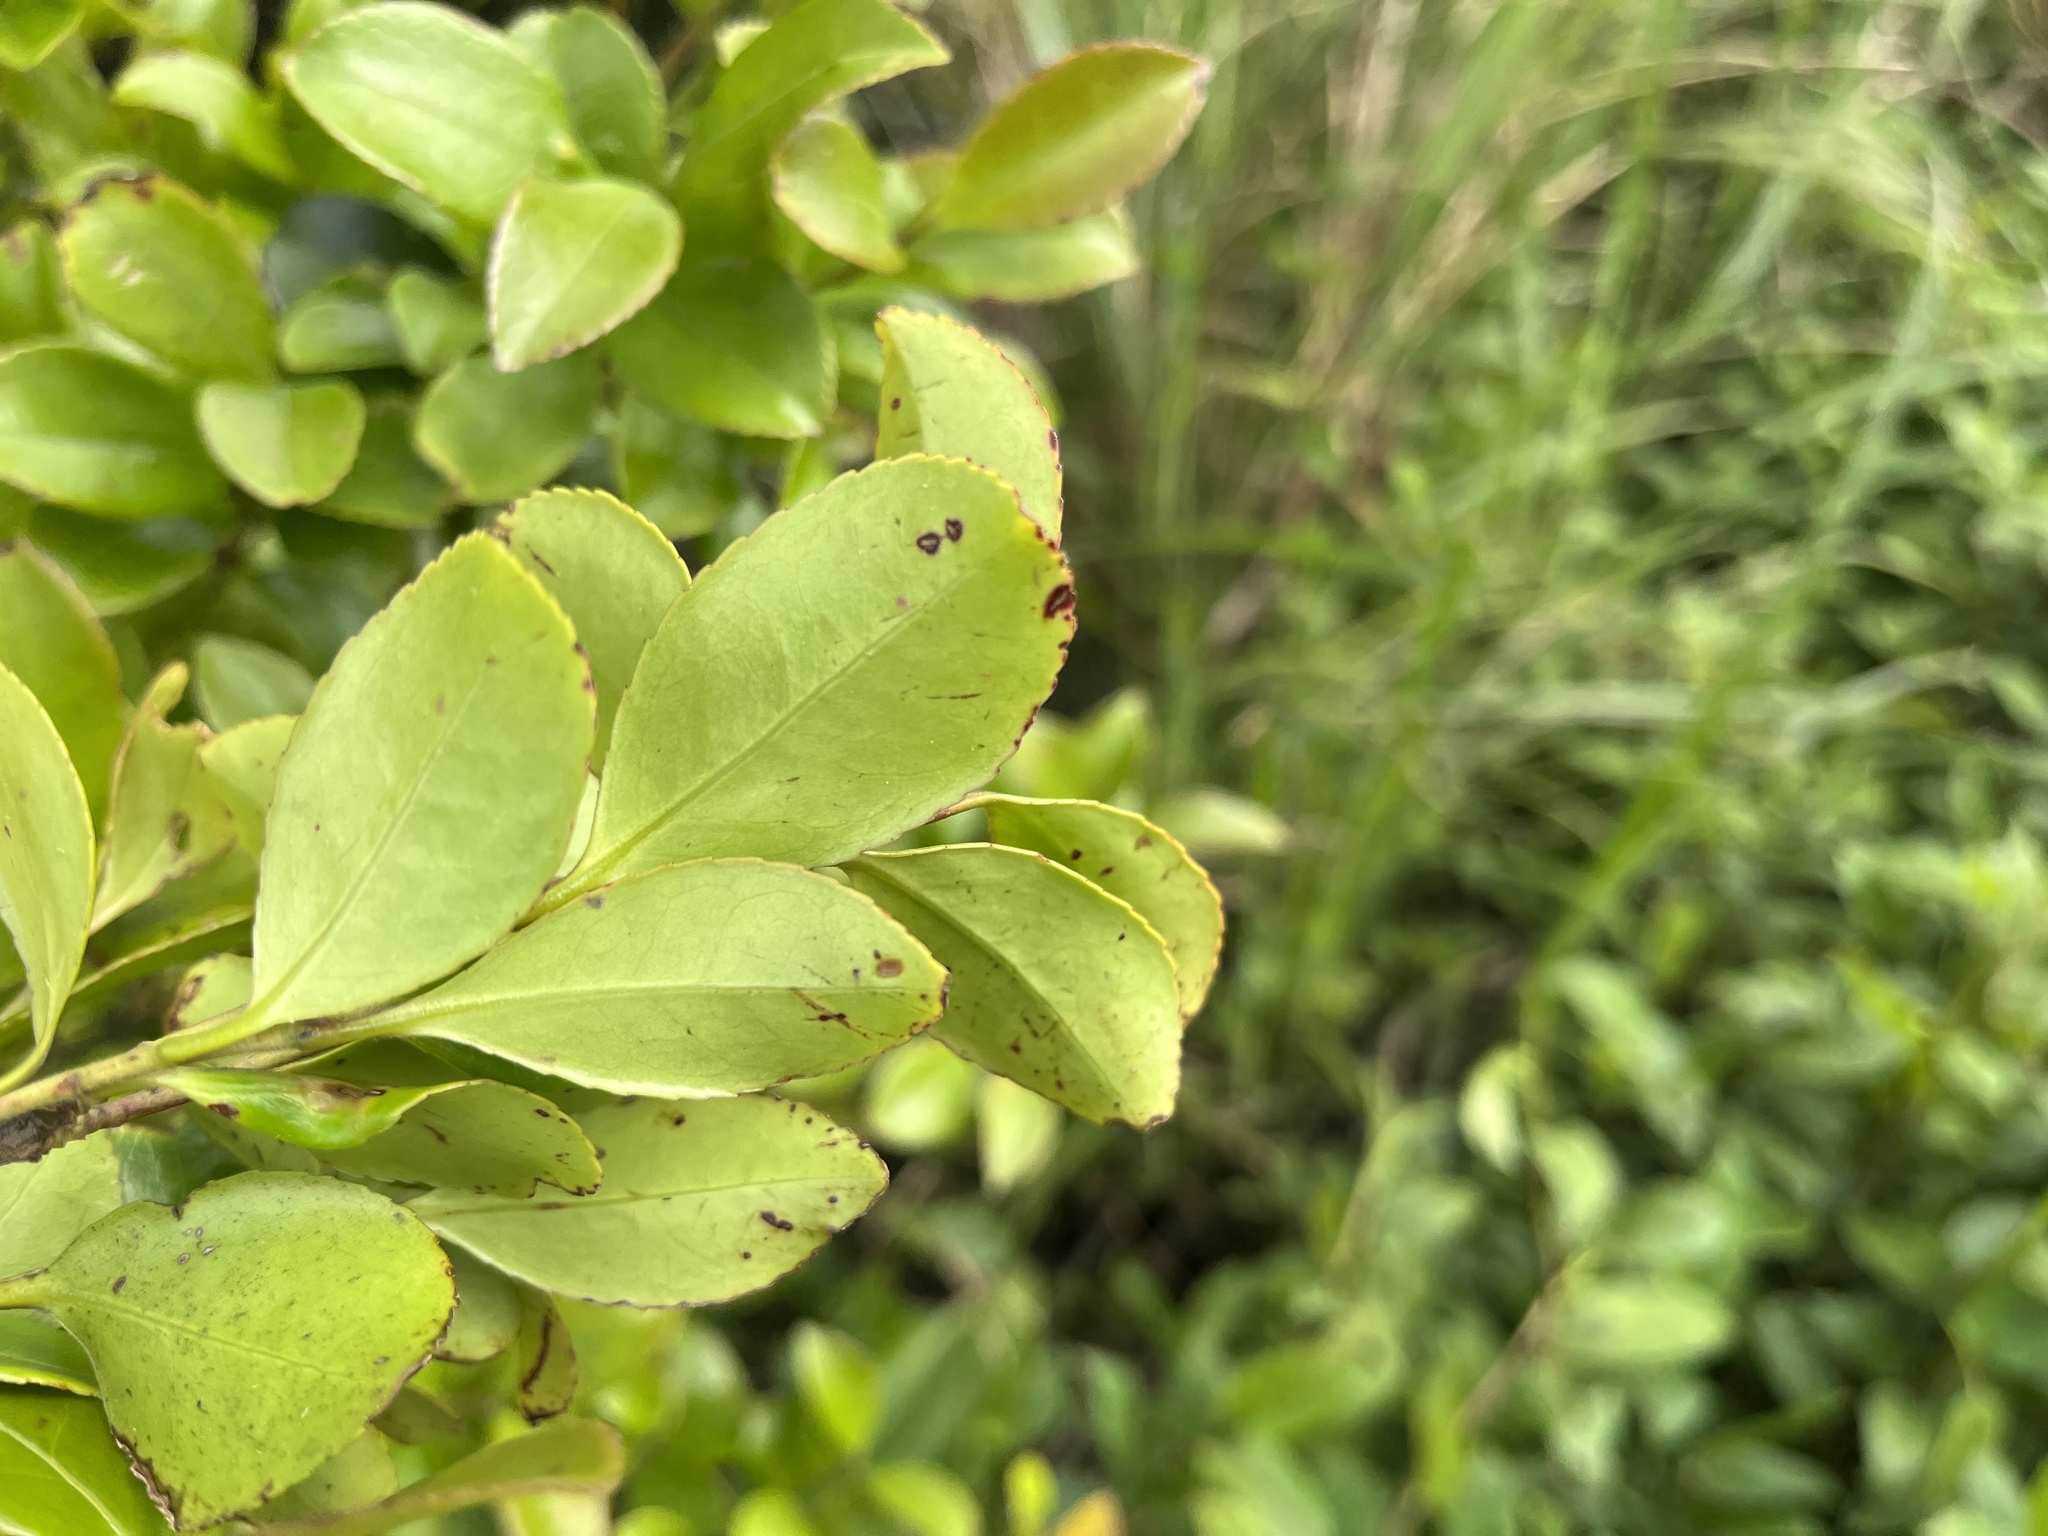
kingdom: Plantae
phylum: Tracheophyta
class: Magnoliopsida
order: Aquifoliales
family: Aquifoliaceae
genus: Ilex
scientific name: Ilex maximowicziana
